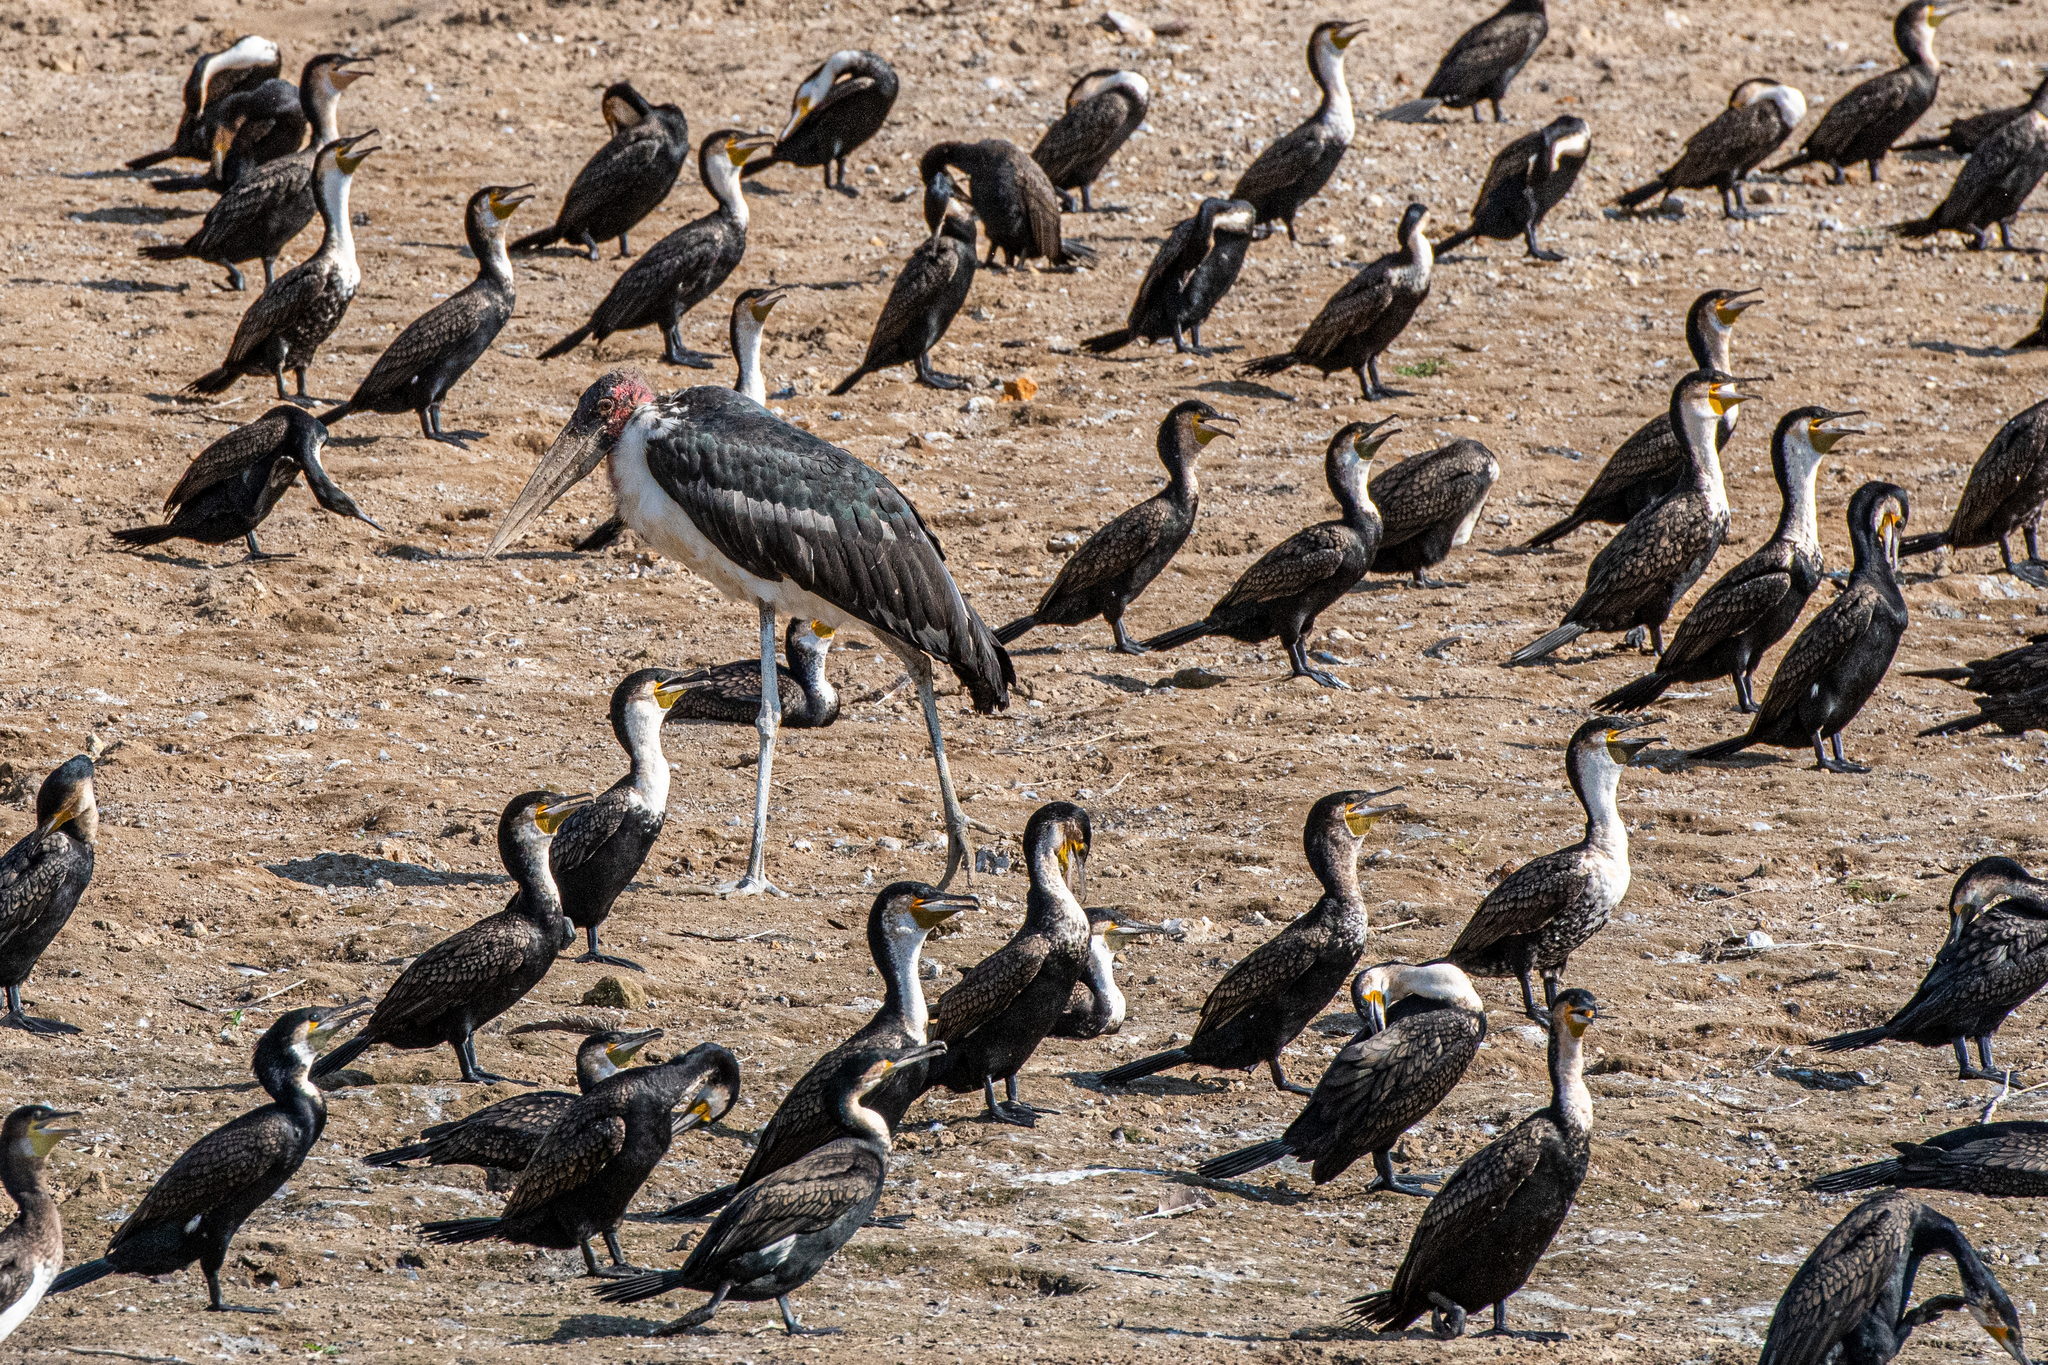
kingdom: Animalia
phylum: Chordata
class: Aves
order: Suliformes
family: Phalacrocoracidae
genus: Phalacrocorax
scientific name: Phalacrocorax carbo
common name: Great cormorant
